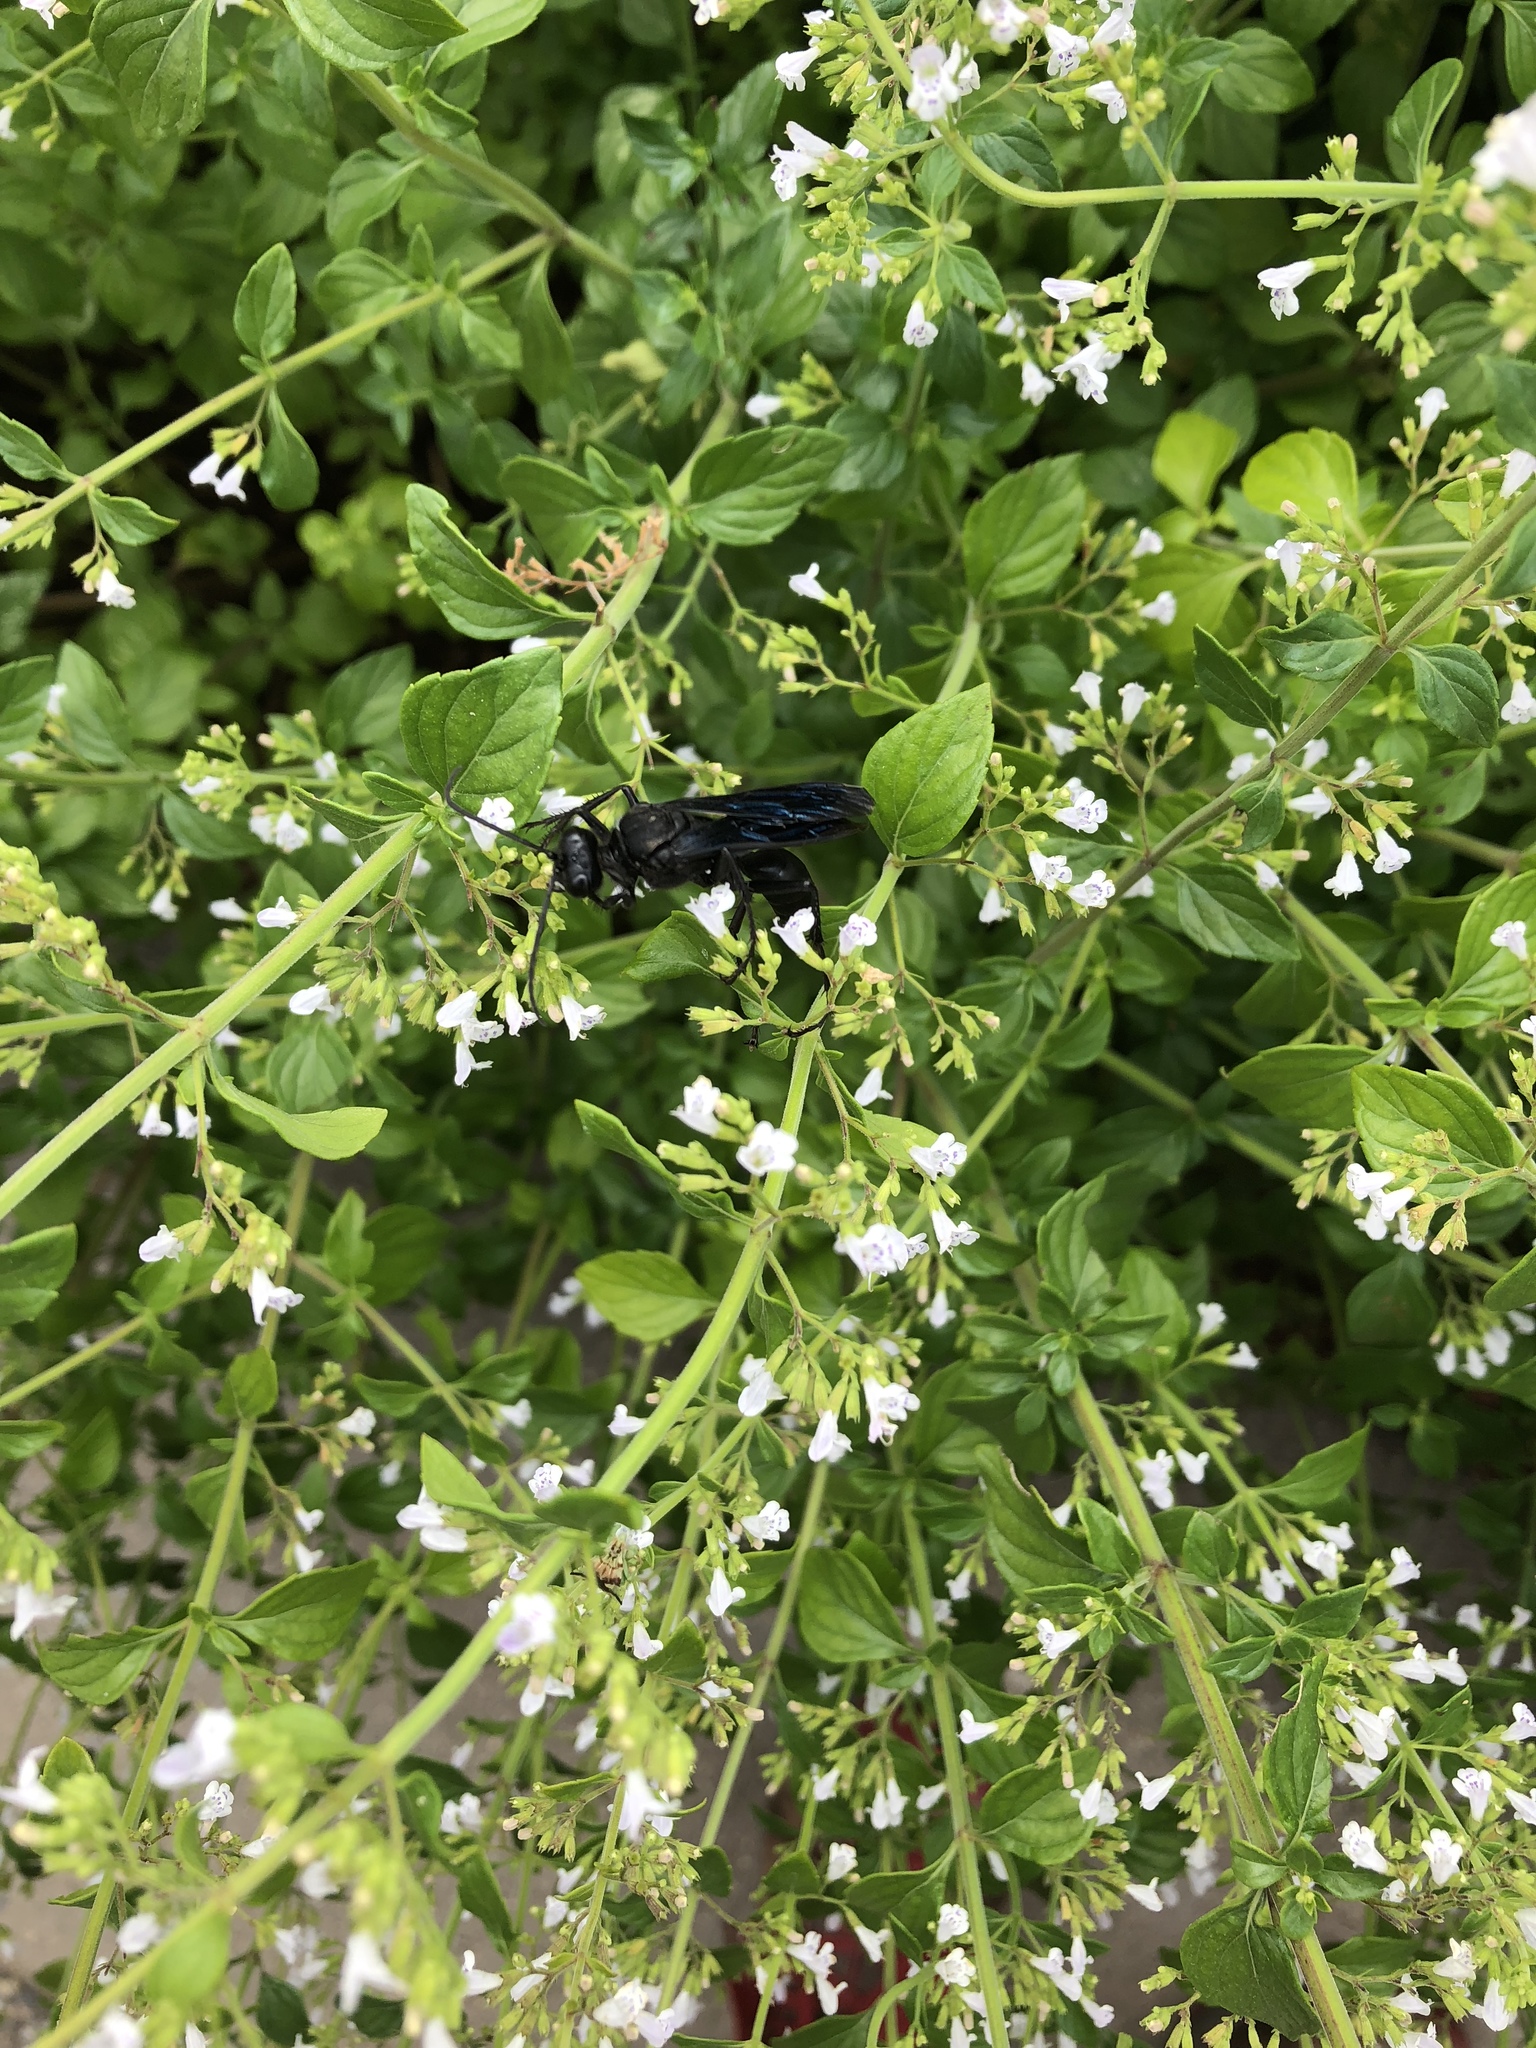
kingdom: Animalia
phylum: Arthropoda
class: Insecta
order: Hymenoptera
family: Sphecidae
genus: Sphex
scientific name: Sphex pensylvanicus
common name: Great black digger wasp
